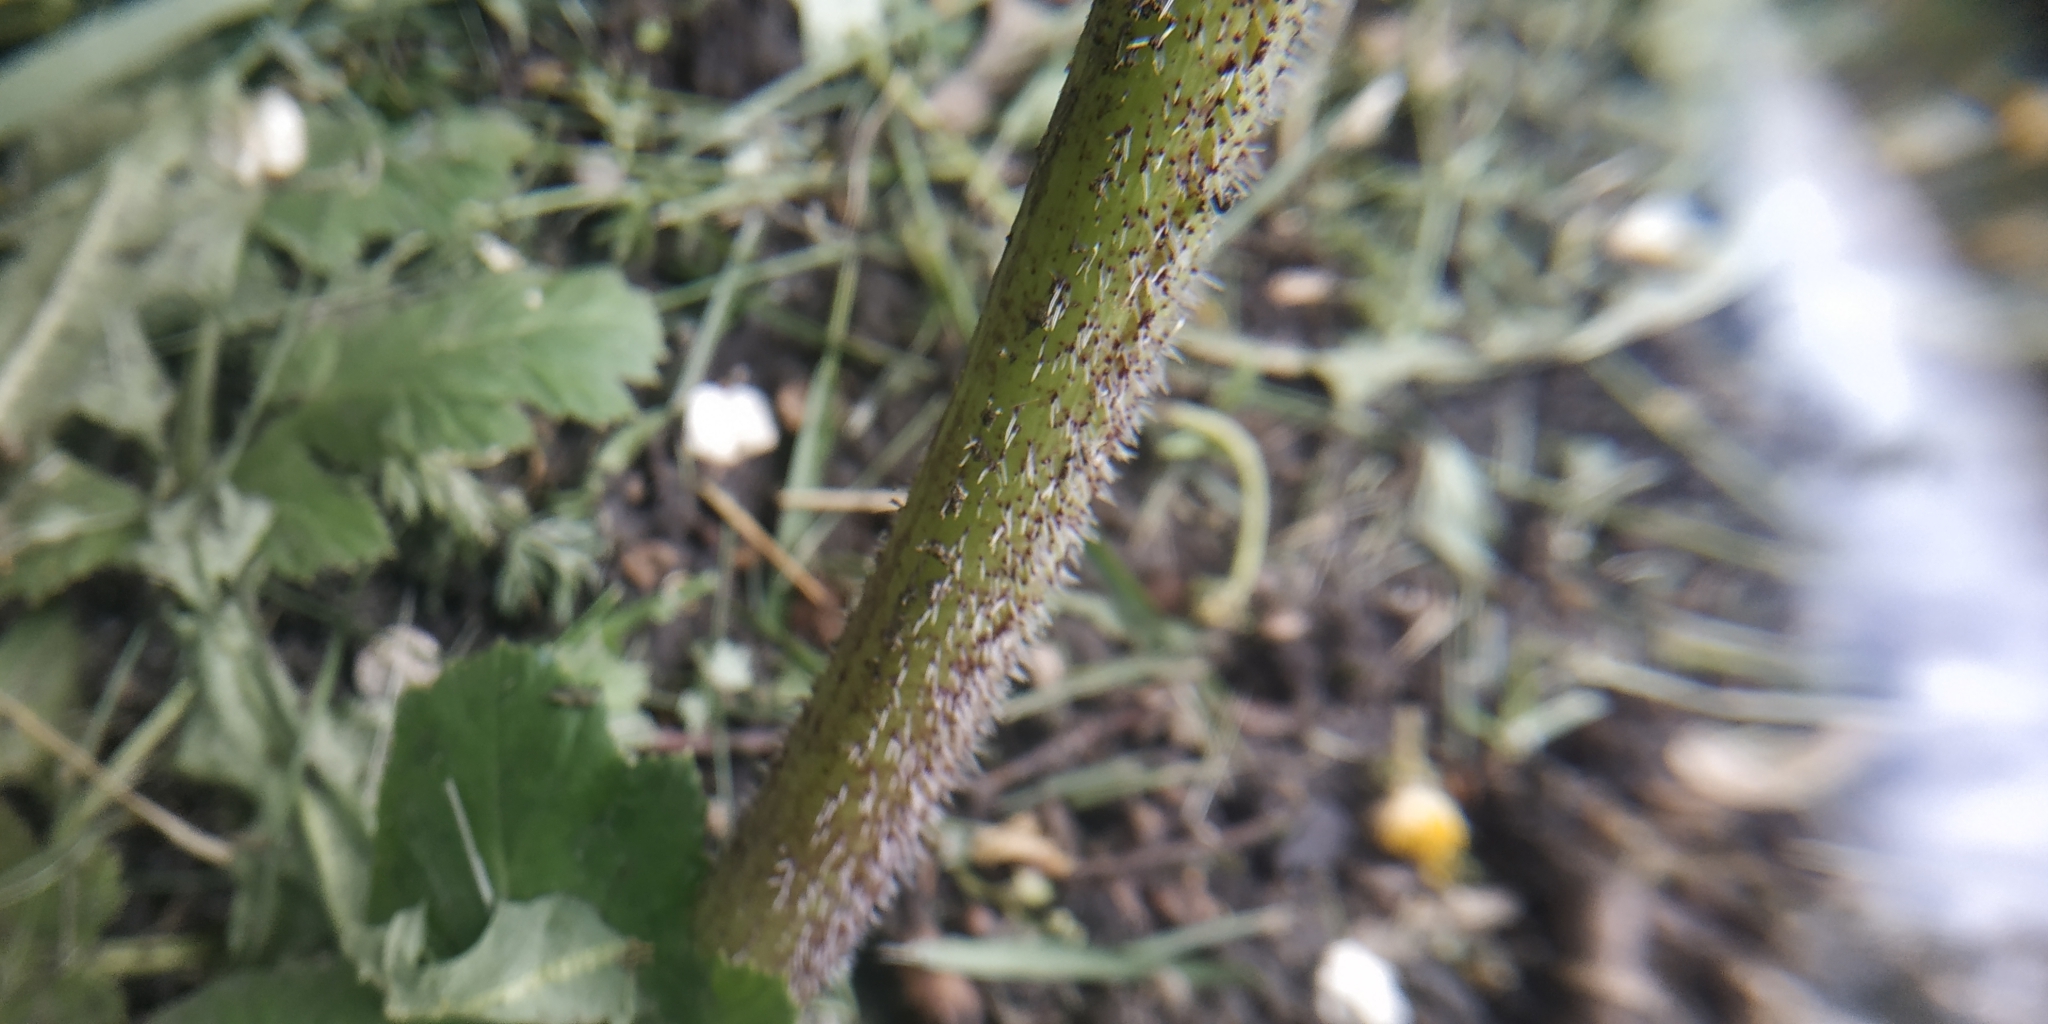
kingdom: Plantae
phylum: Tracheophyta
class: Magnoliopsida
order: Apiales
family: Apiaceae
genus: Heracleum
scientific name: Heracleum sosnowskyi
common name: Sosnowsky's hogweed
